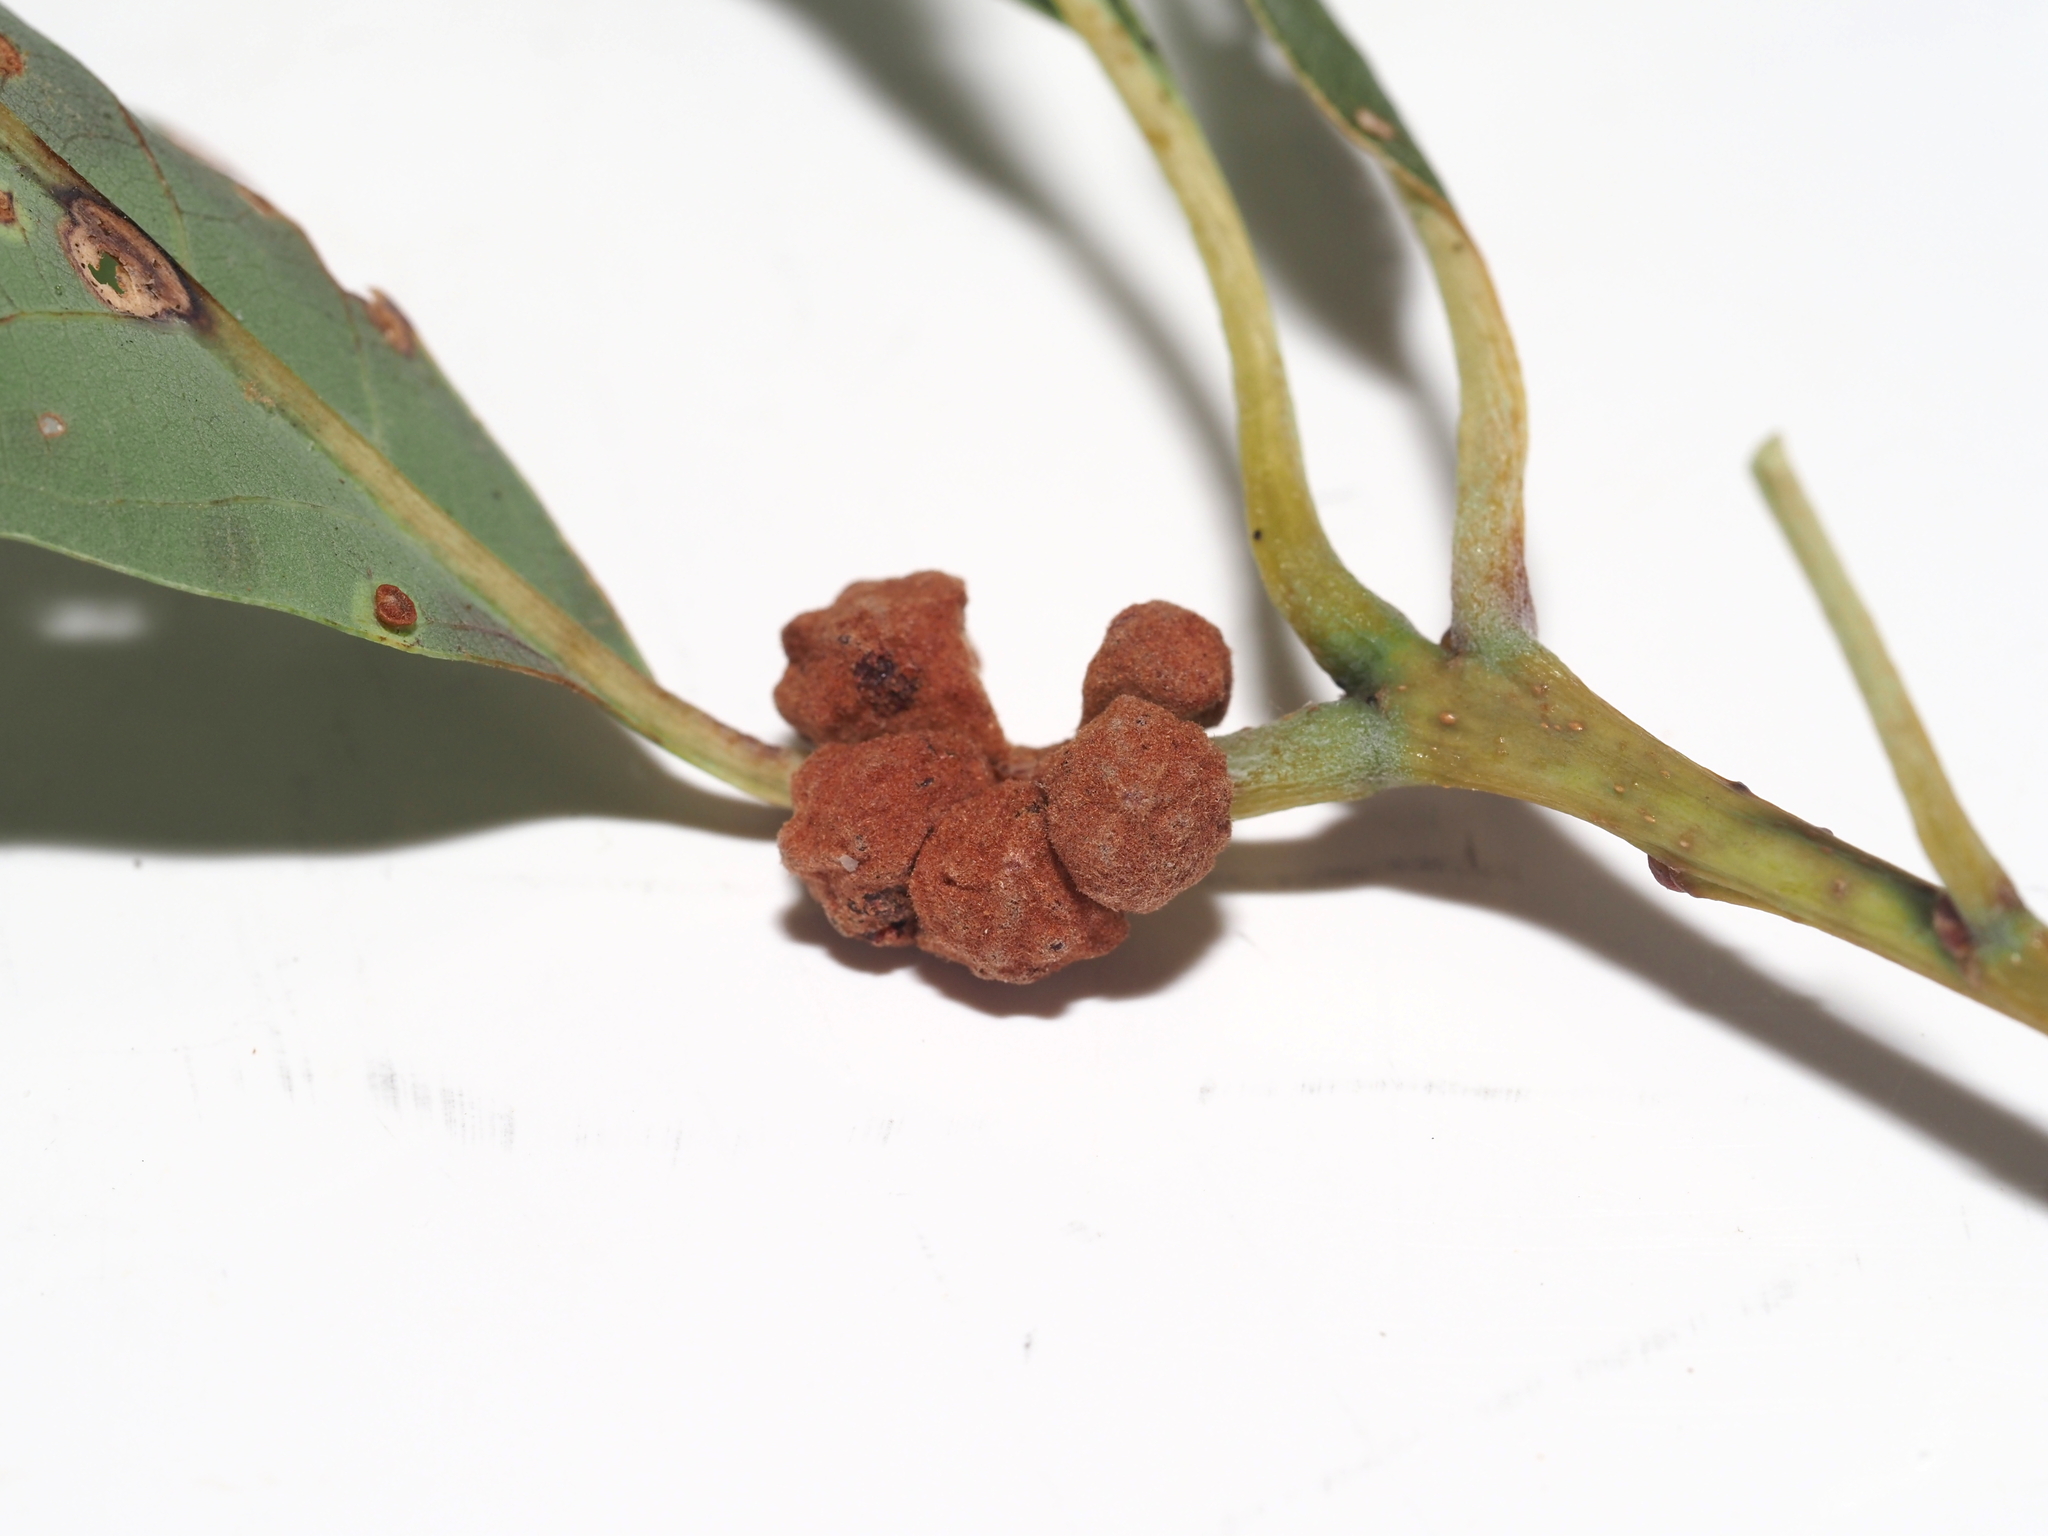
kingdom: Animalia
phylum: Arthropoda
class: Insecta
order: Hymenoptera
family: Cynipidae
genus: Andricus
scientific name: Andricus
